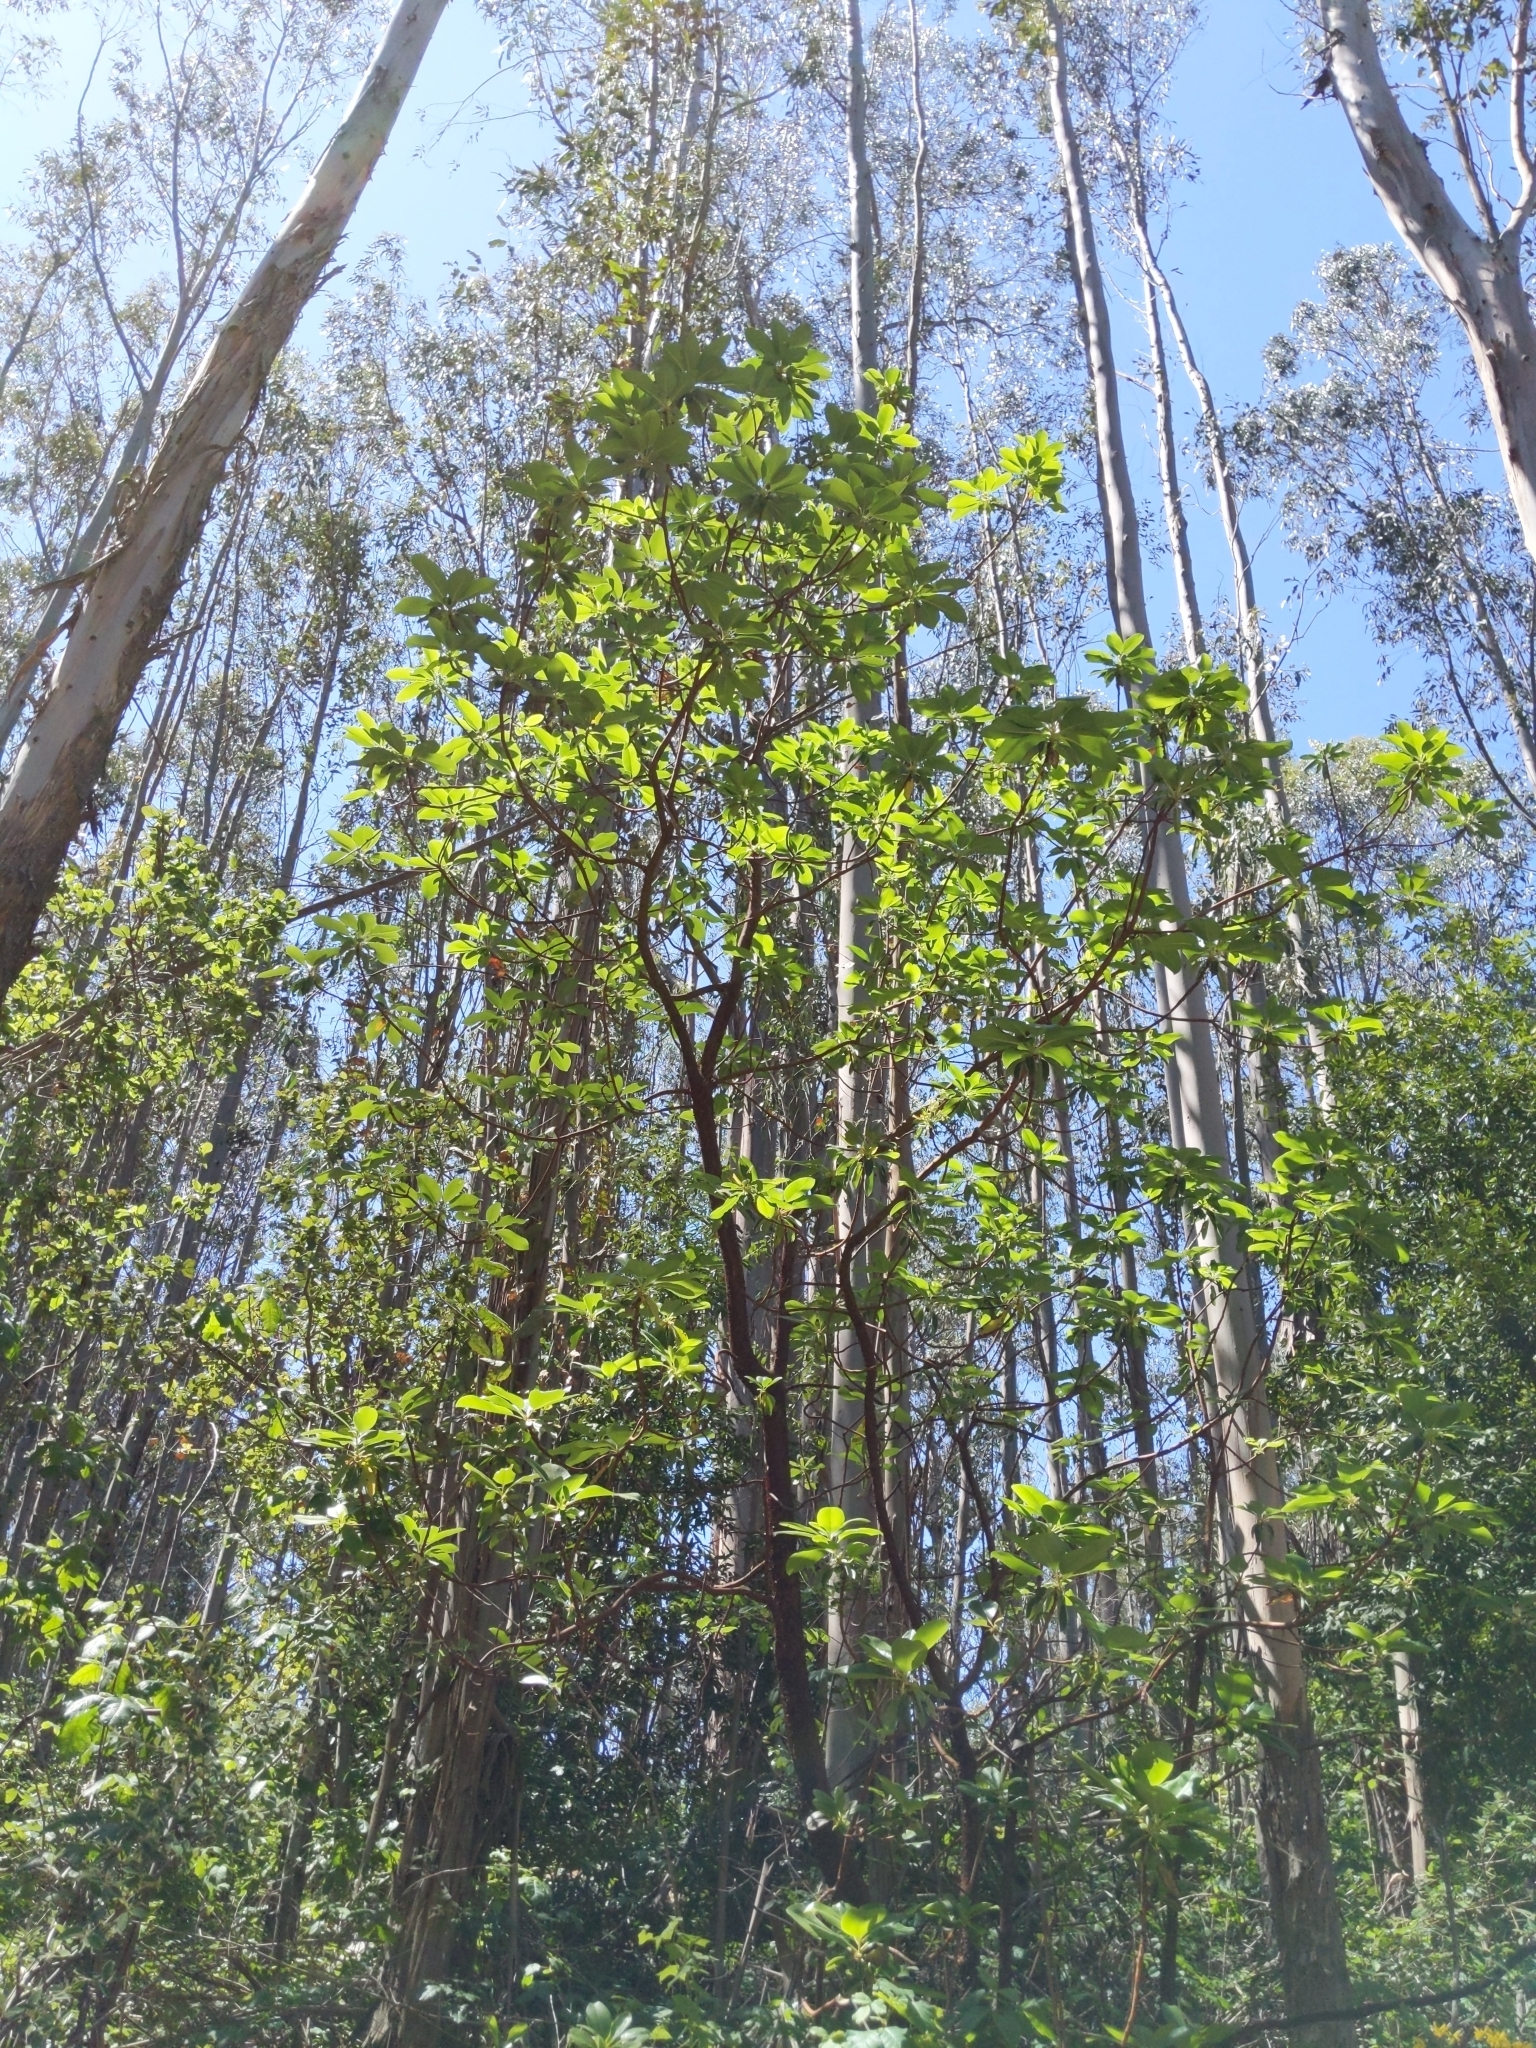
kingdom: Plantae
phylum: Tracheophyta
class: Magnoliopsida
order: Ericales
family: Ericaceae
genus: Arbutus
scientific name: Arbutus menziesii
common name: Pacific madrone
